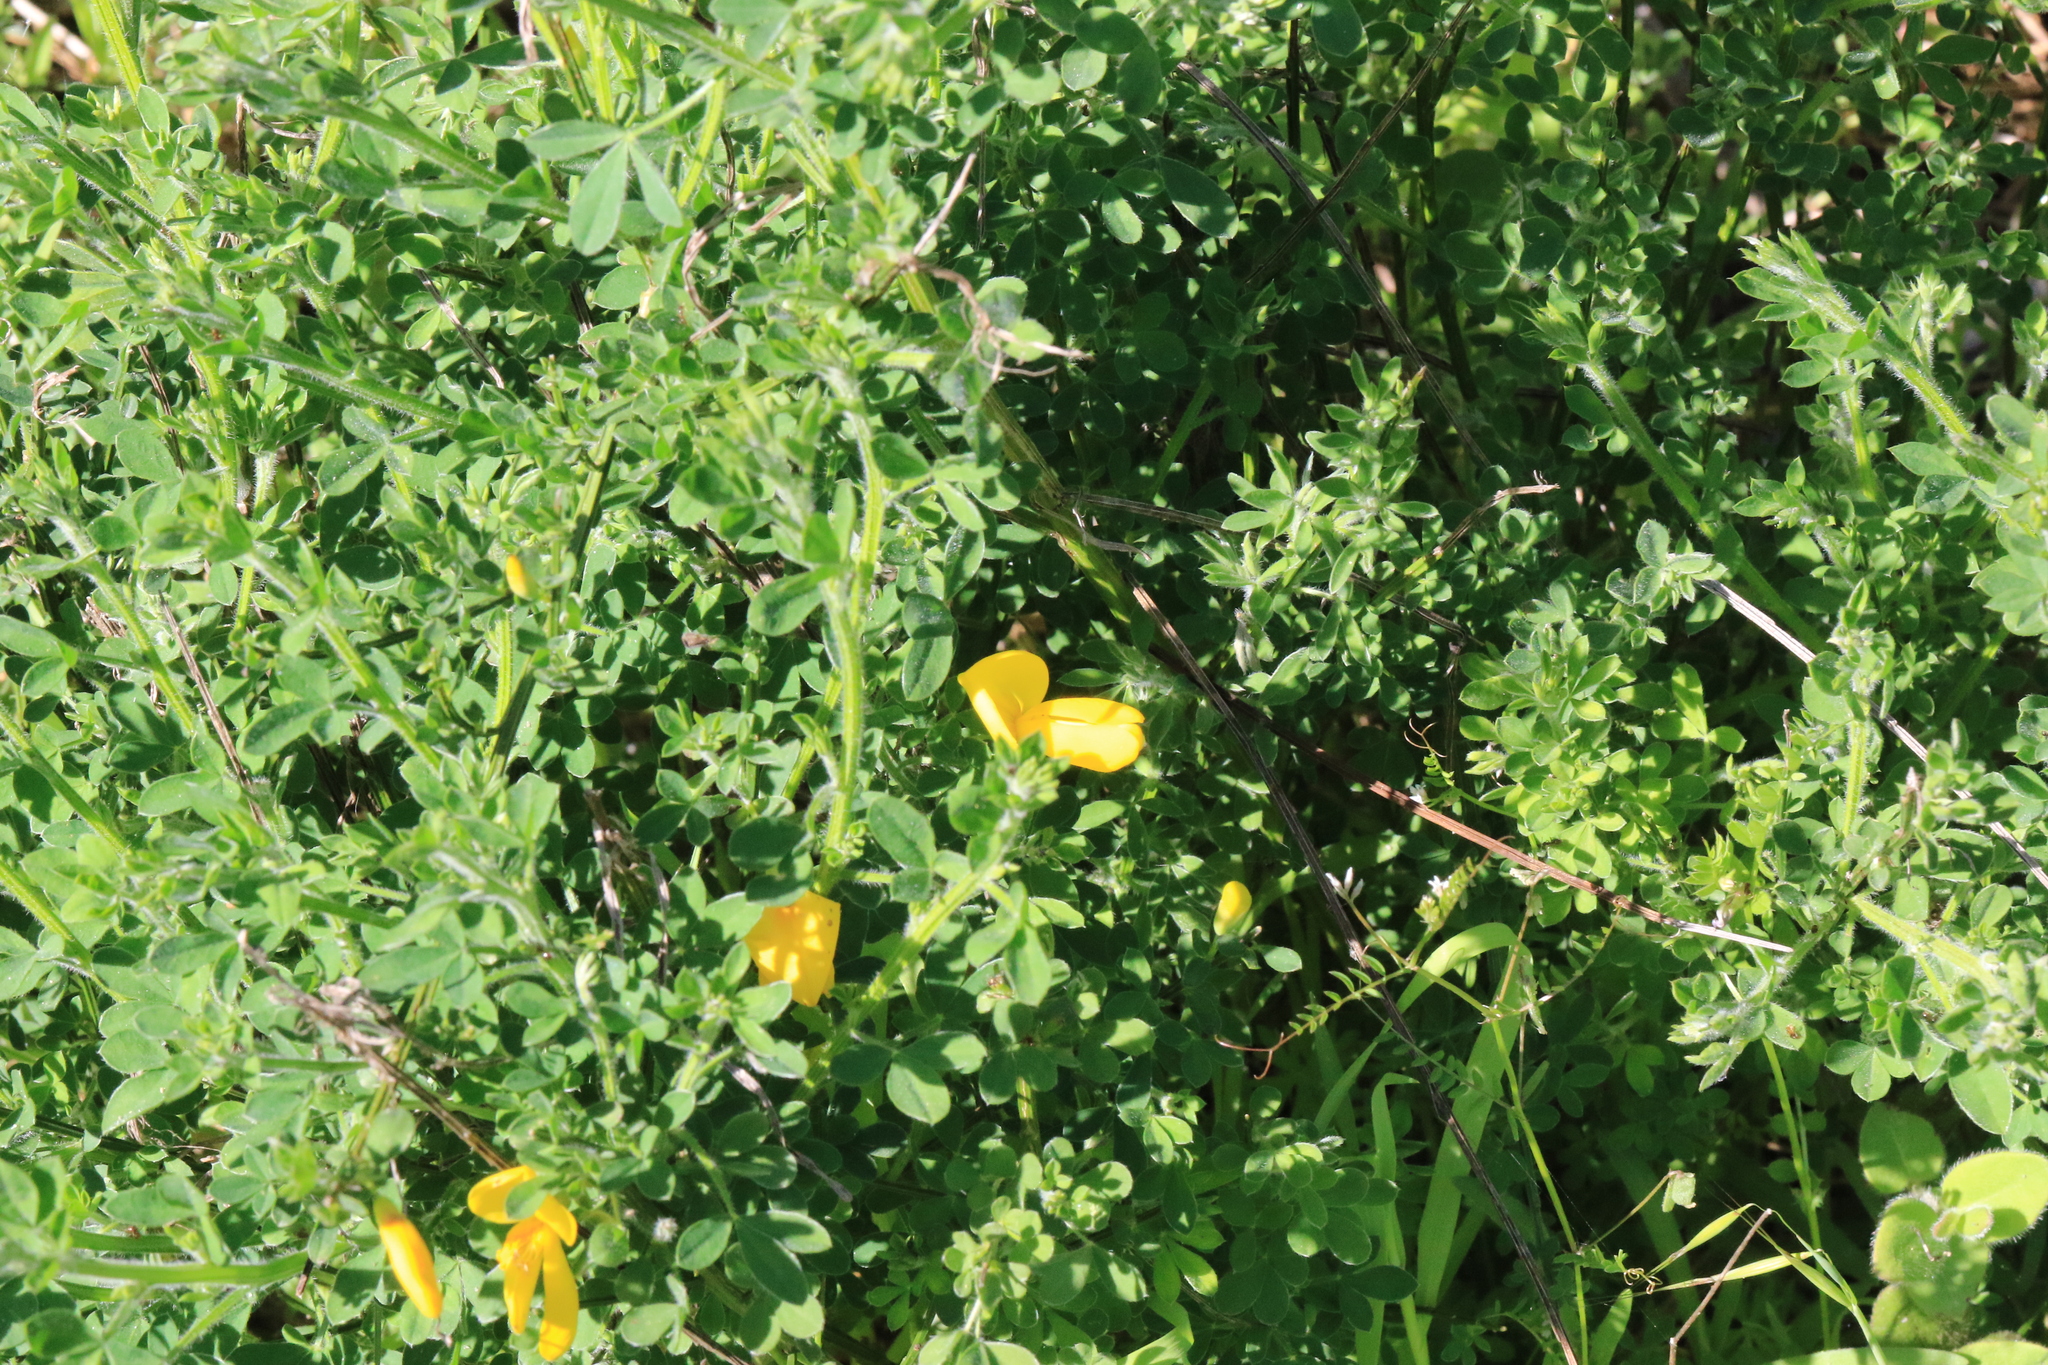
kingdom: Plantae
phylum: Tracheophyta
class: Magnoliopsida
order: Fabales
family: Fabaceae
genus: Cytisus
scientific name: Cytisus scoparius
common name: Scotch broom
